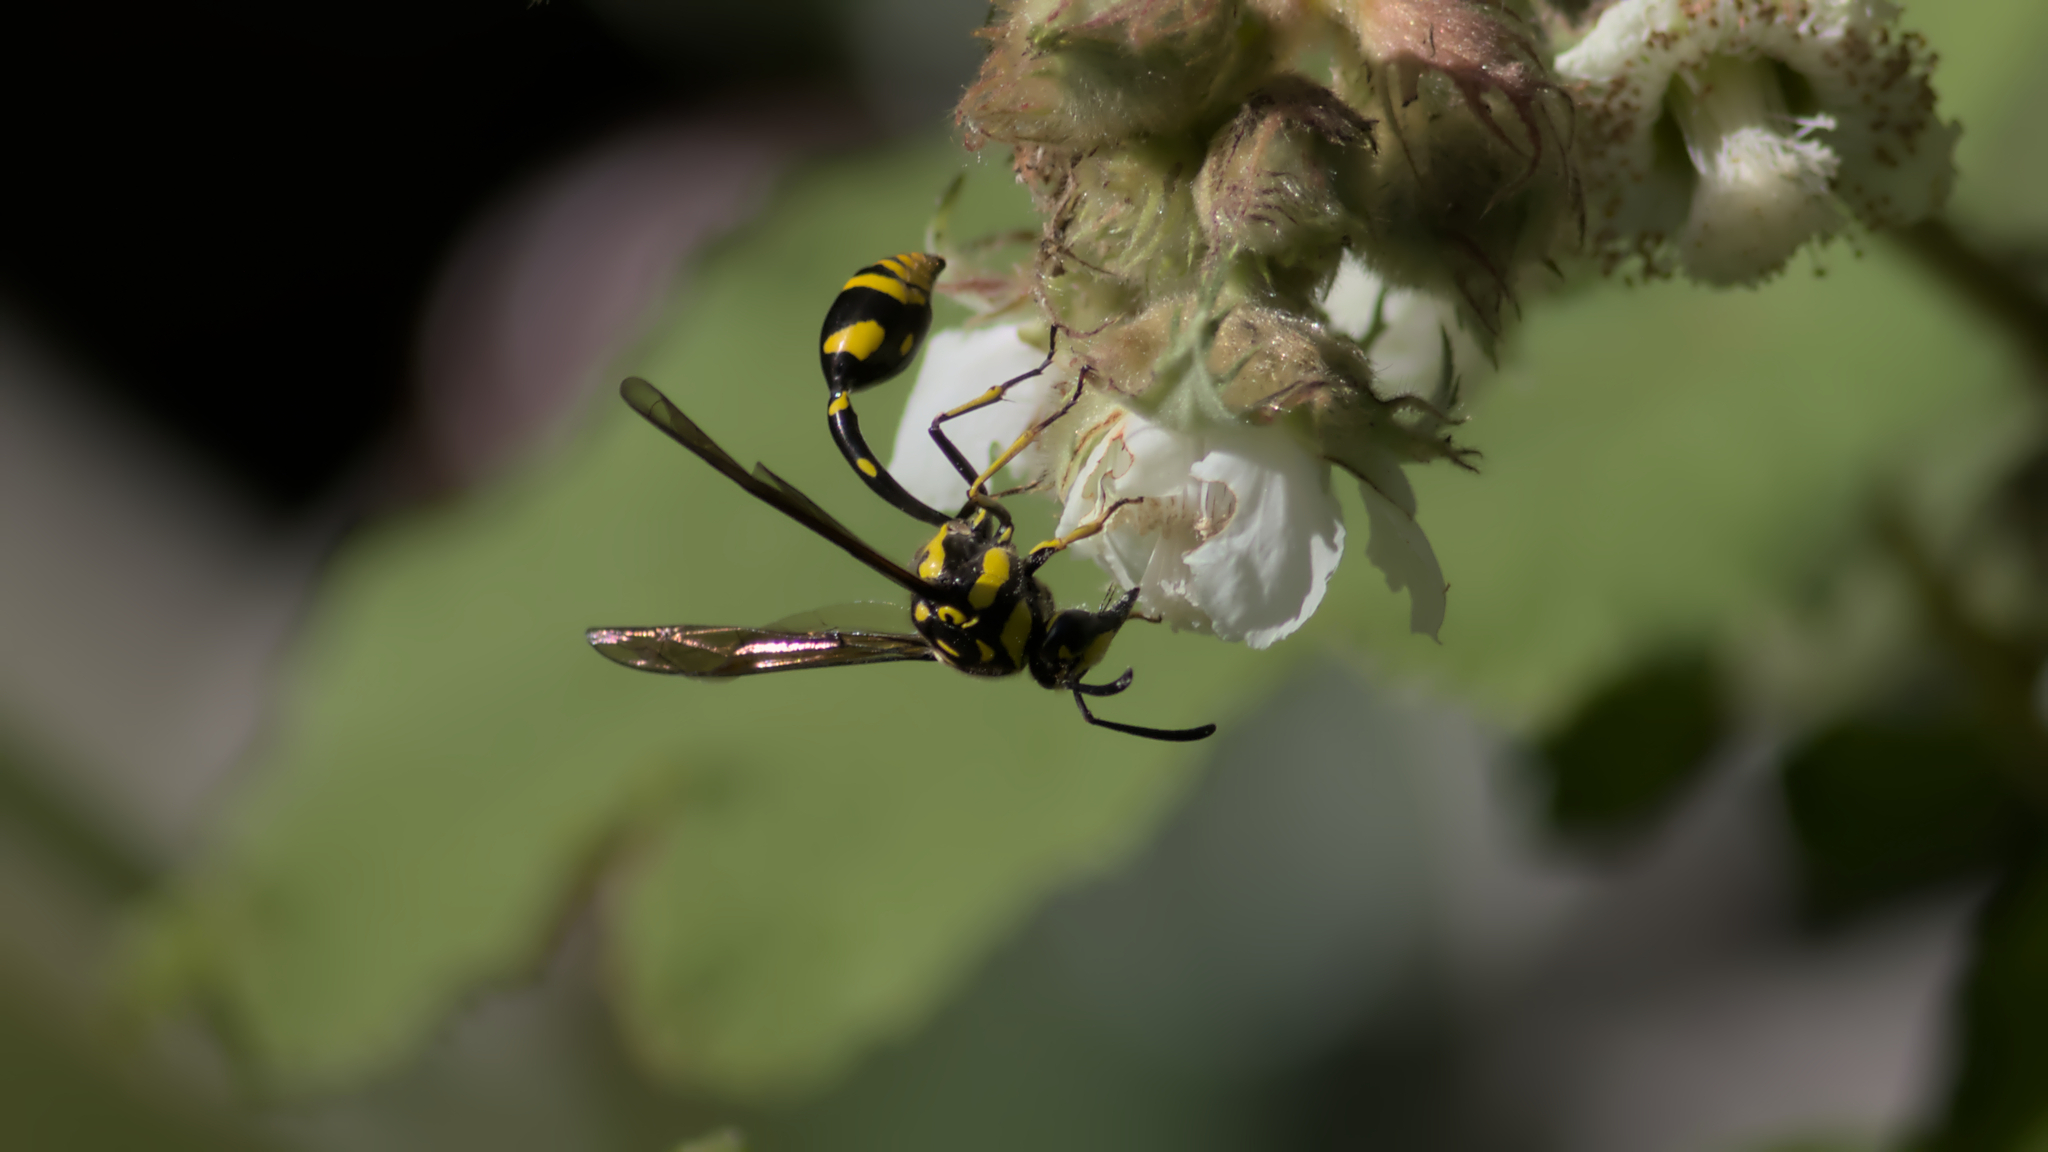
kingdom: Animalia
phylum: Arthropoda
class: Insecta
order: Hymenoptera
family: Eumenidae
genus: Phimenes
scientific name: Phimenes arcuatus
